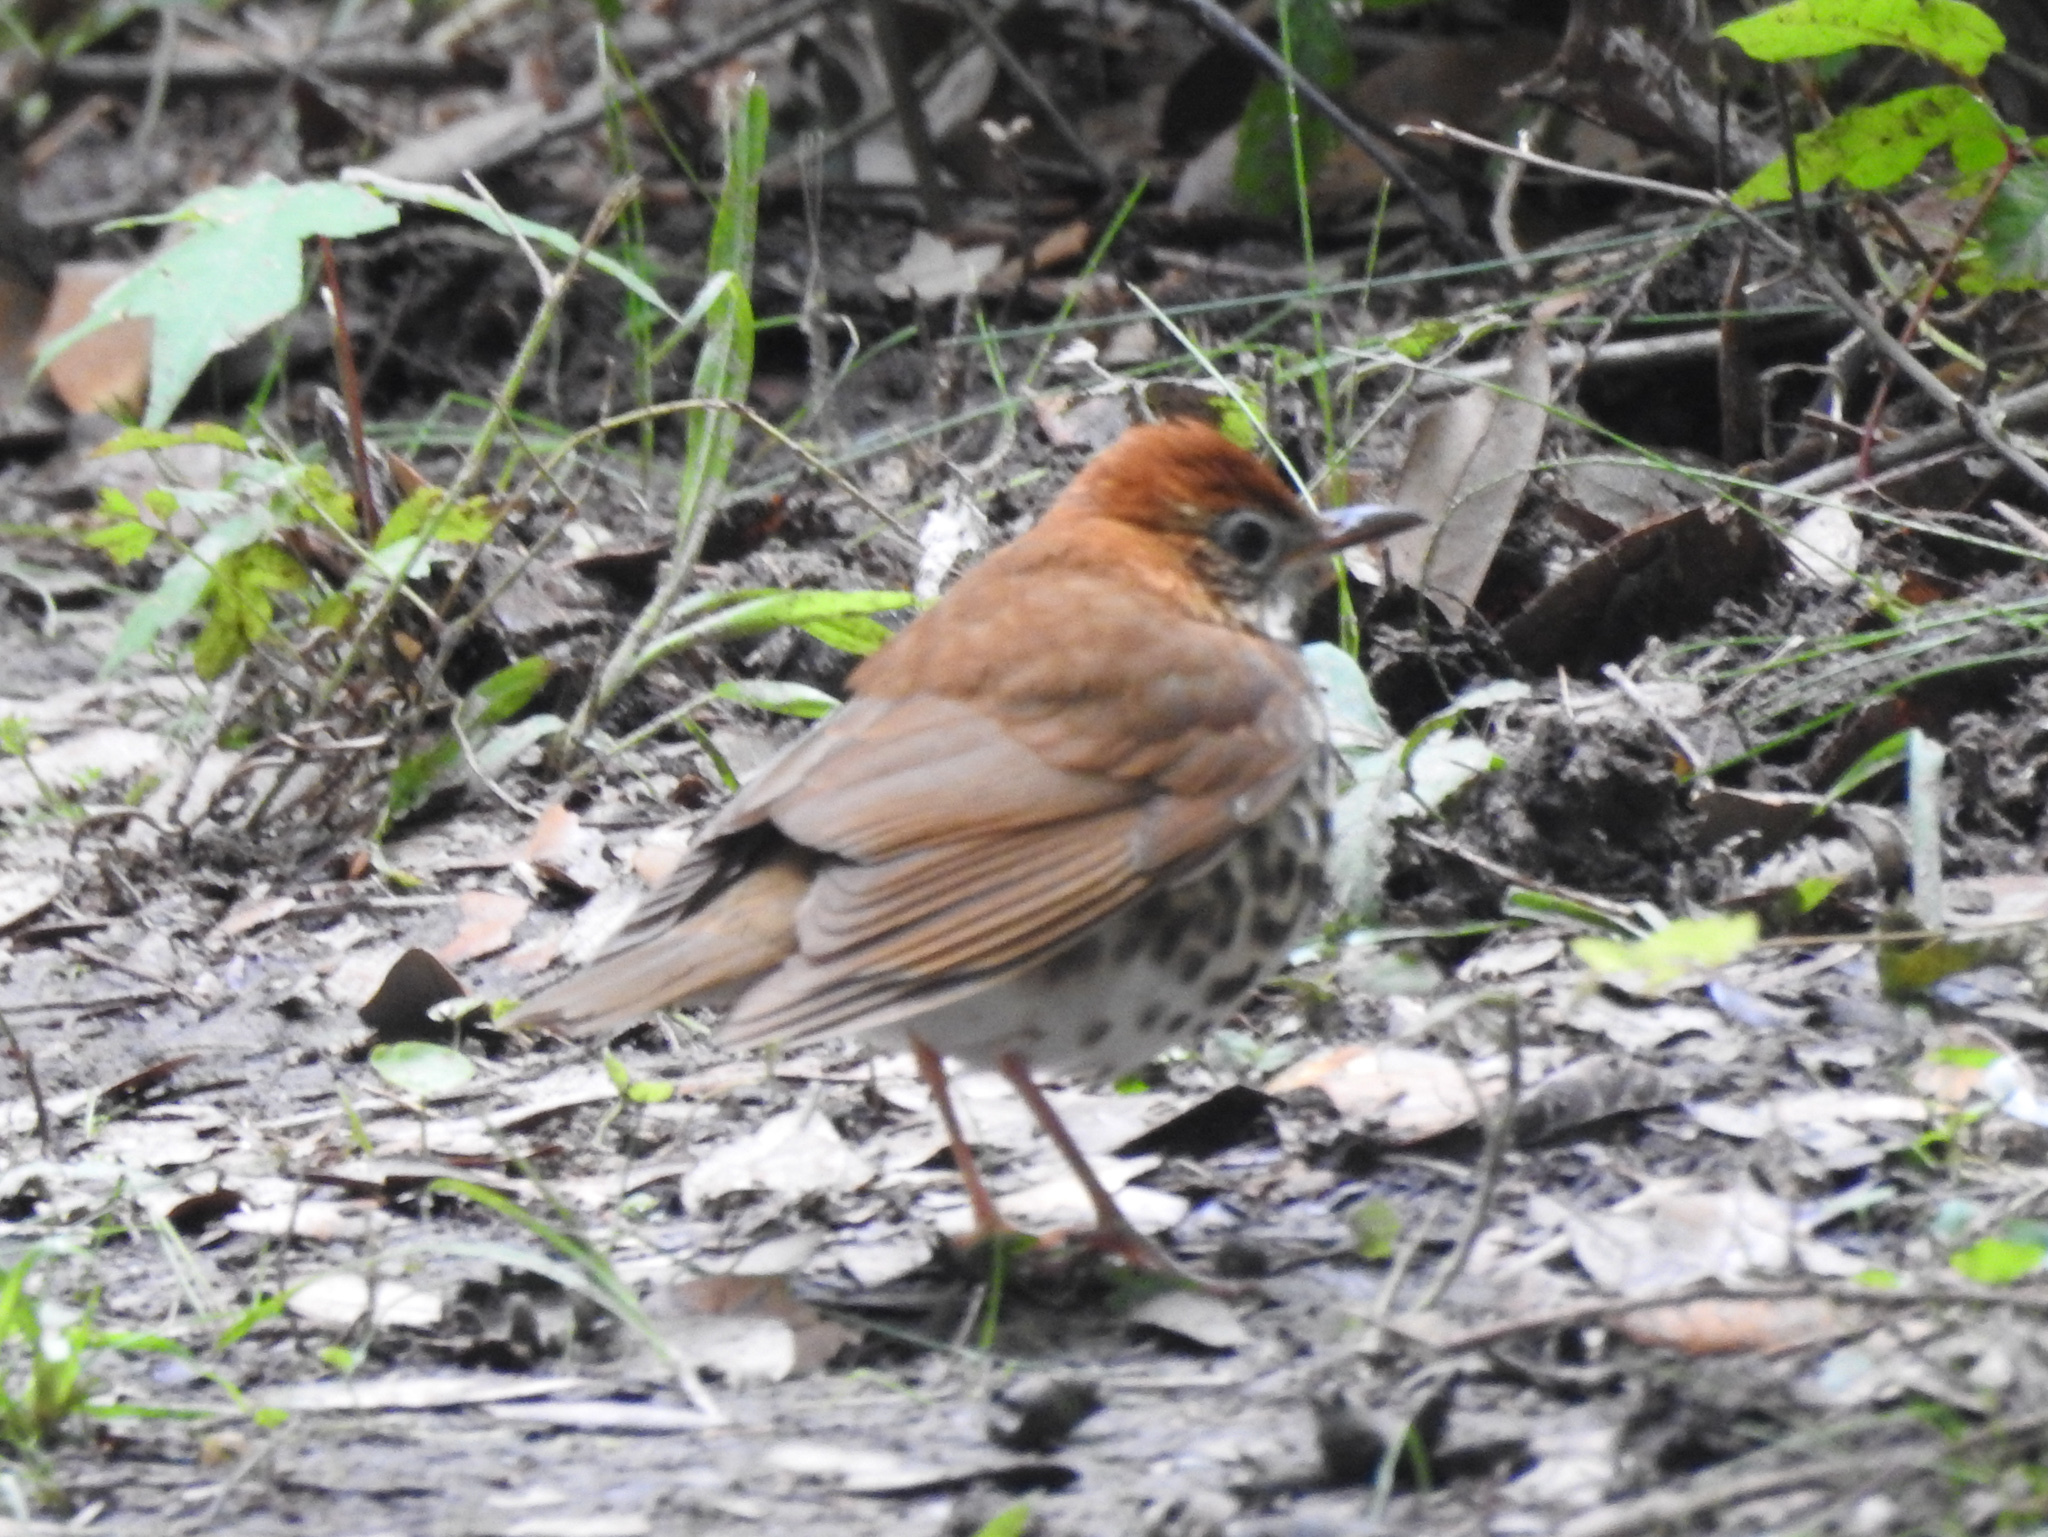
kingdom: Animalia
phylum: Chordata
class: Aves
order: Passeriformes
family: Turdidae
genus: Hylocichla
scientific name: Hylocichla mustelina
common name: Wood thrush
